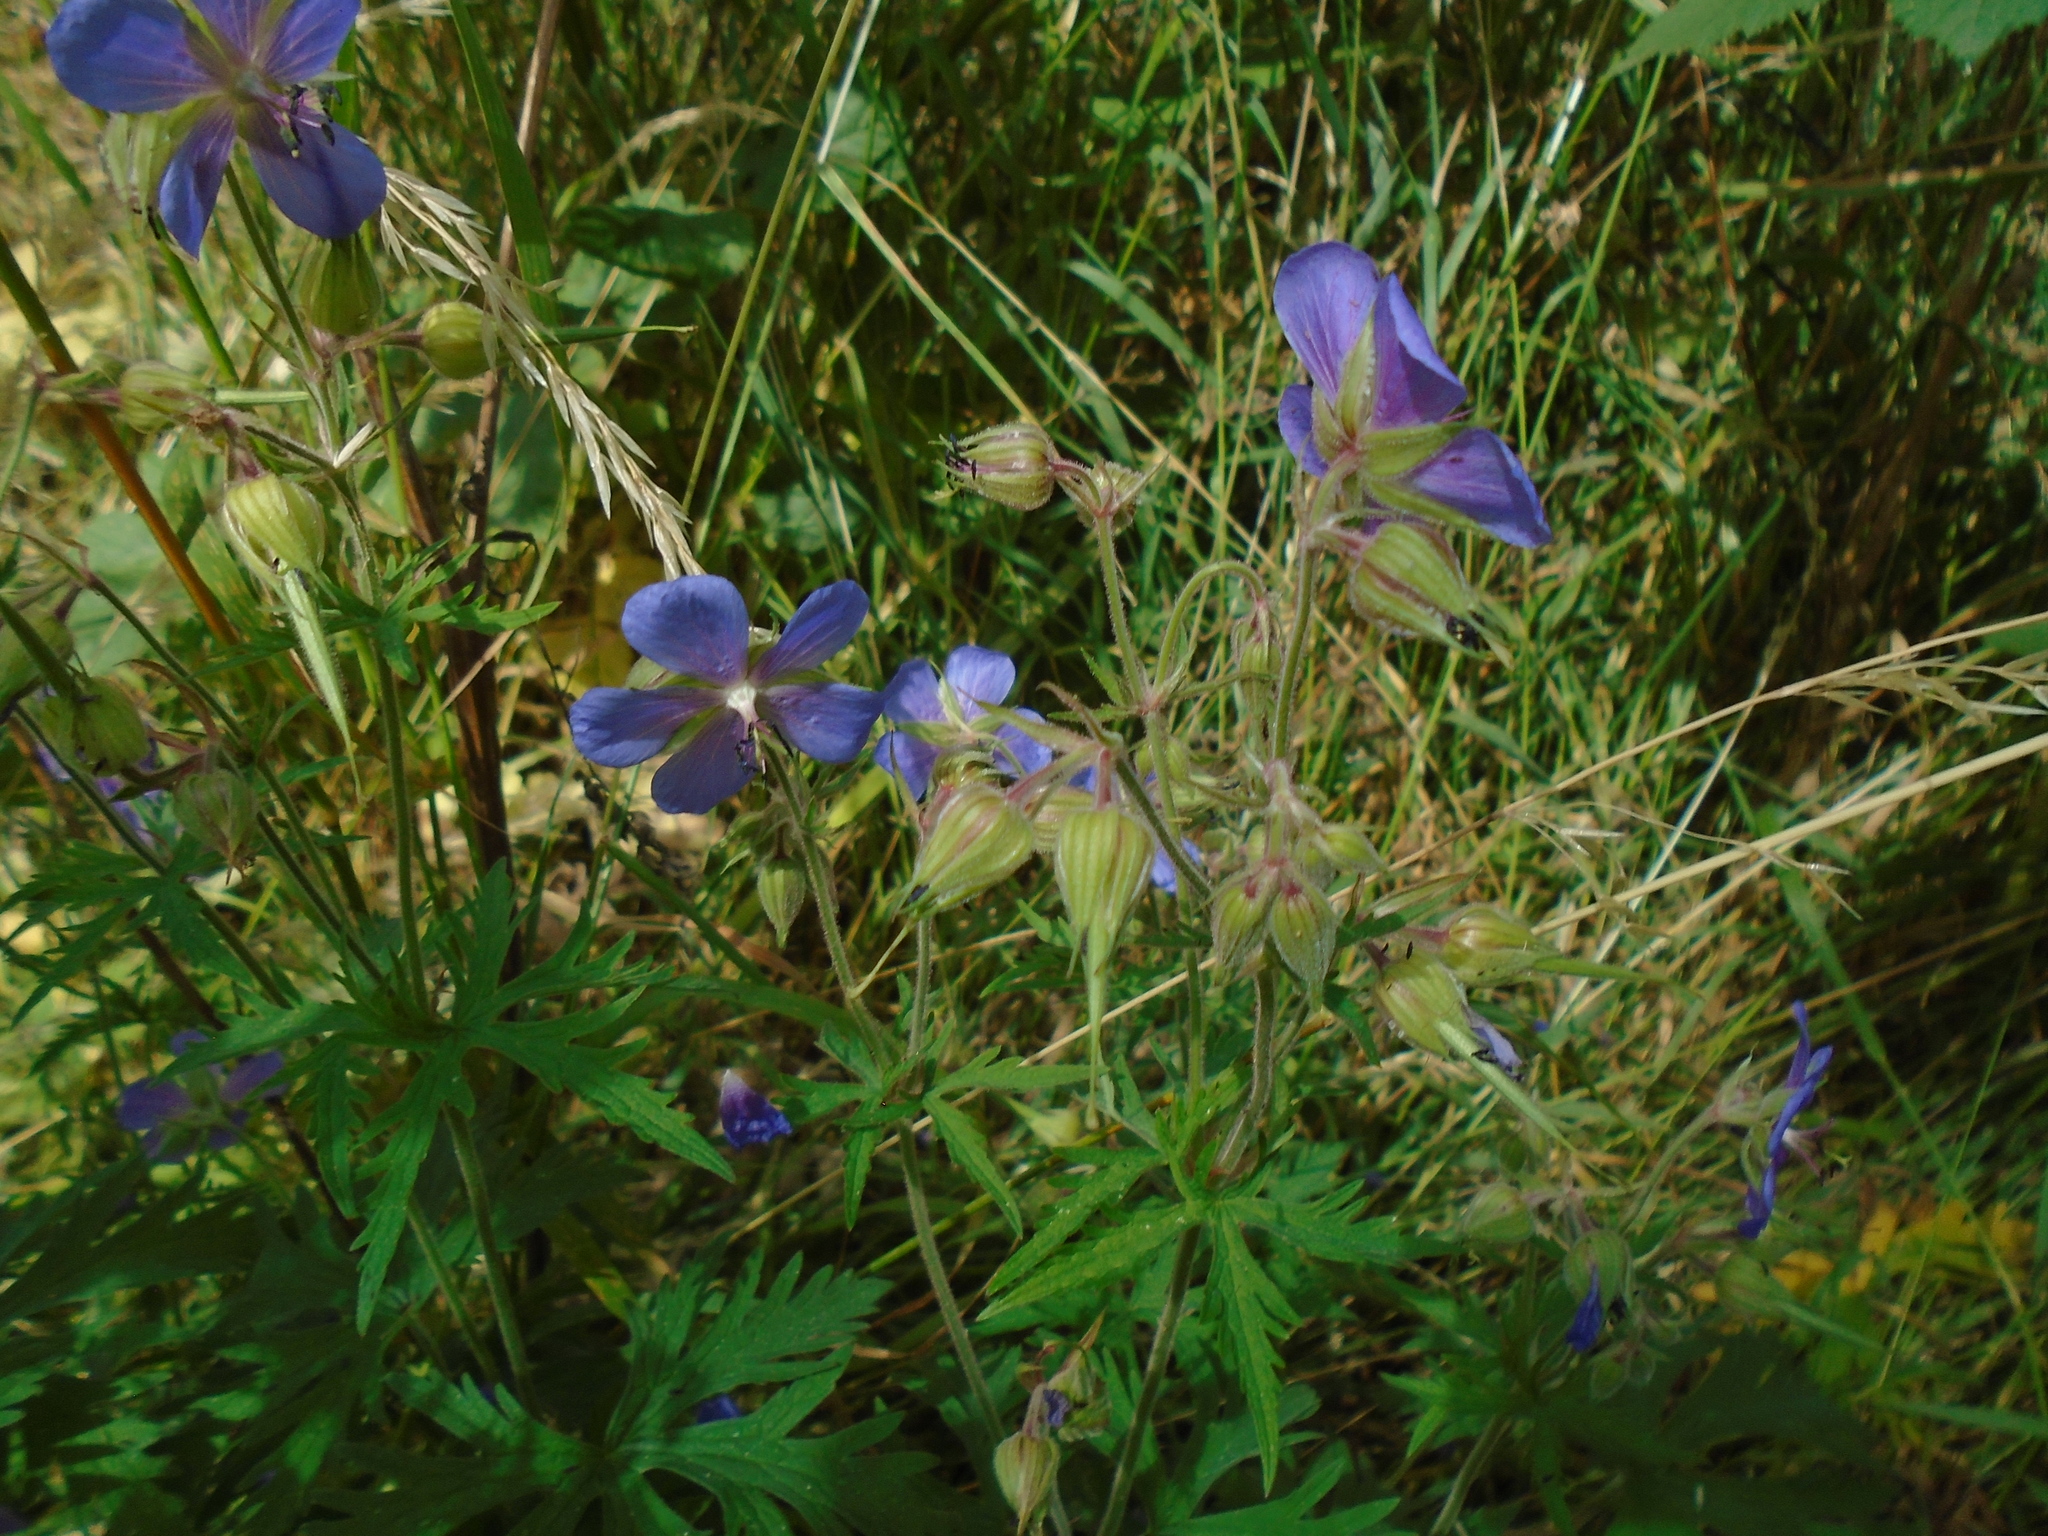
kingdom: Plantae
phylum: Tracheophyta
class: Magnoliopsida
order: Geraniales
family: Geraniaceae
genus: Geranium
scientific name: Geranium pratense
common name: Meadow crane's-bill
